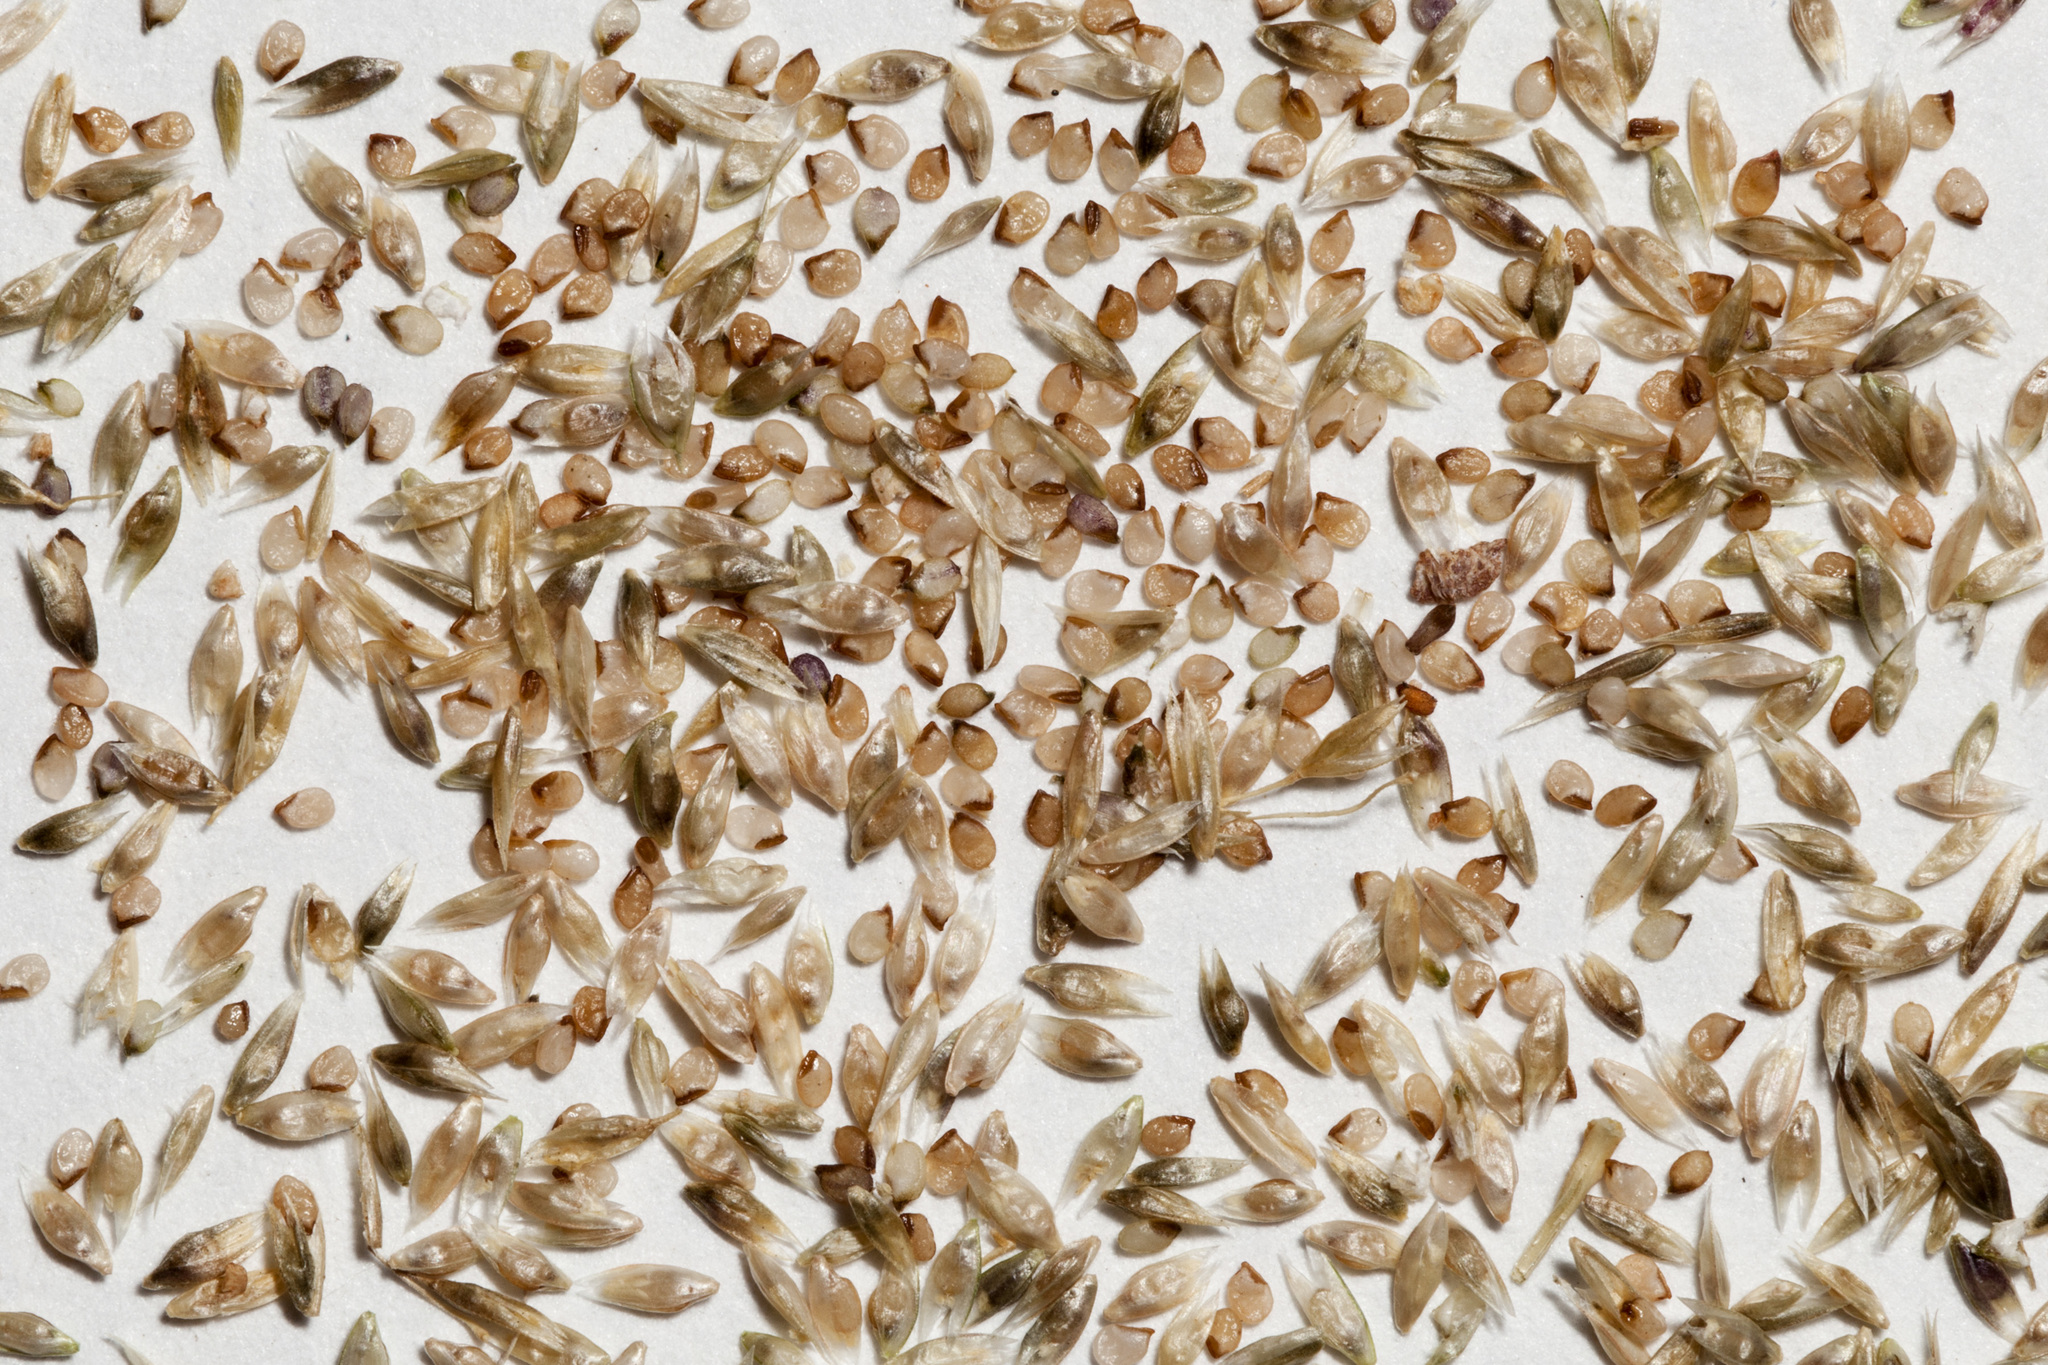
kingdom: Plantae
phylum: Tracheophyta
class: Liliopsida
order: Poales
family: Poaceae
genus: Sporobolus
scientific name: Sporobolus flexuosus
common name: Mesa dropseed
